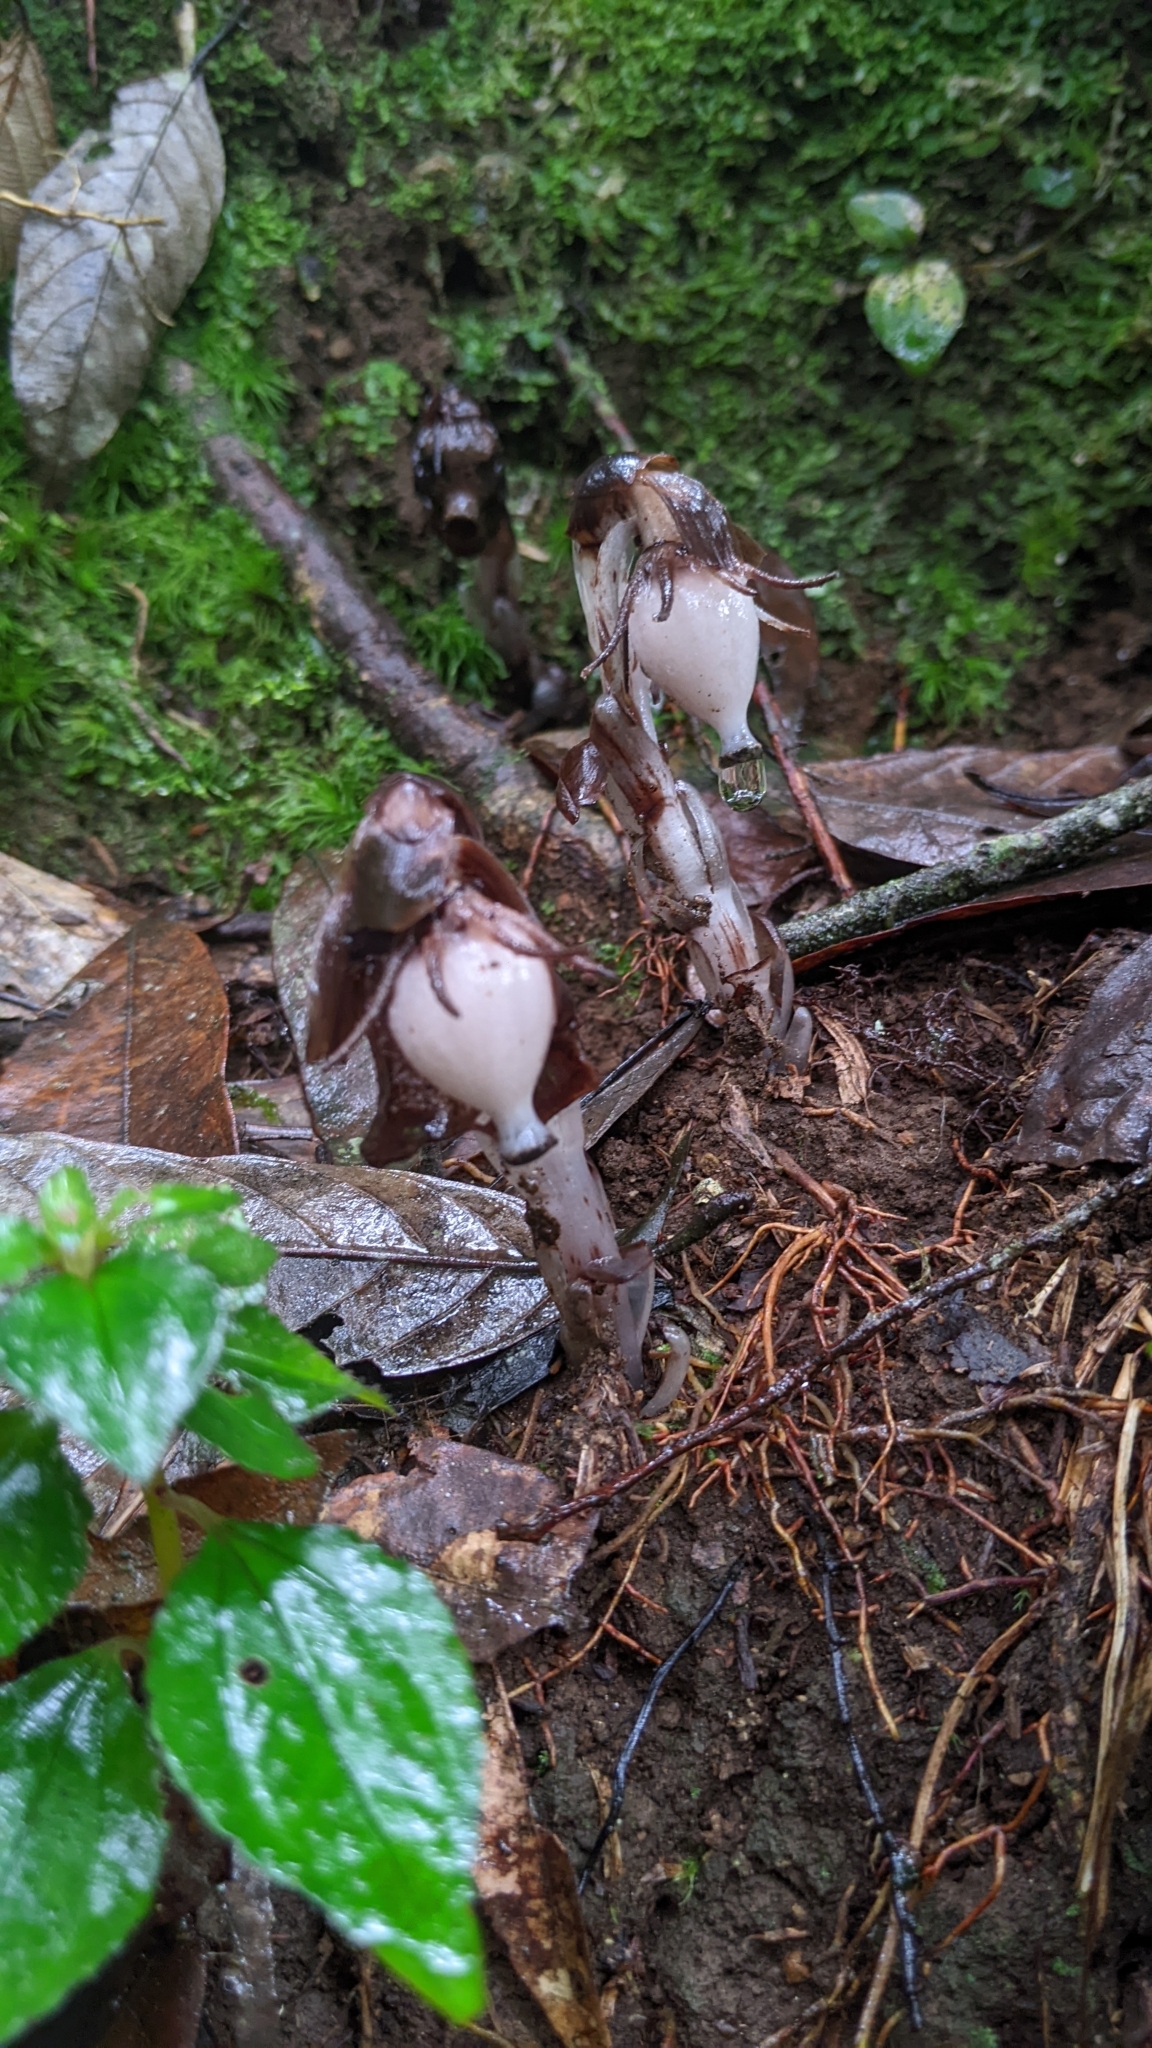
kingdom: Plantae
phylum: Tracheophyta
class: Magnoliopsida
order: Ericales
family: Ericaceae
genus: Monotropastrum
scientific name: Monotropastrum humile
